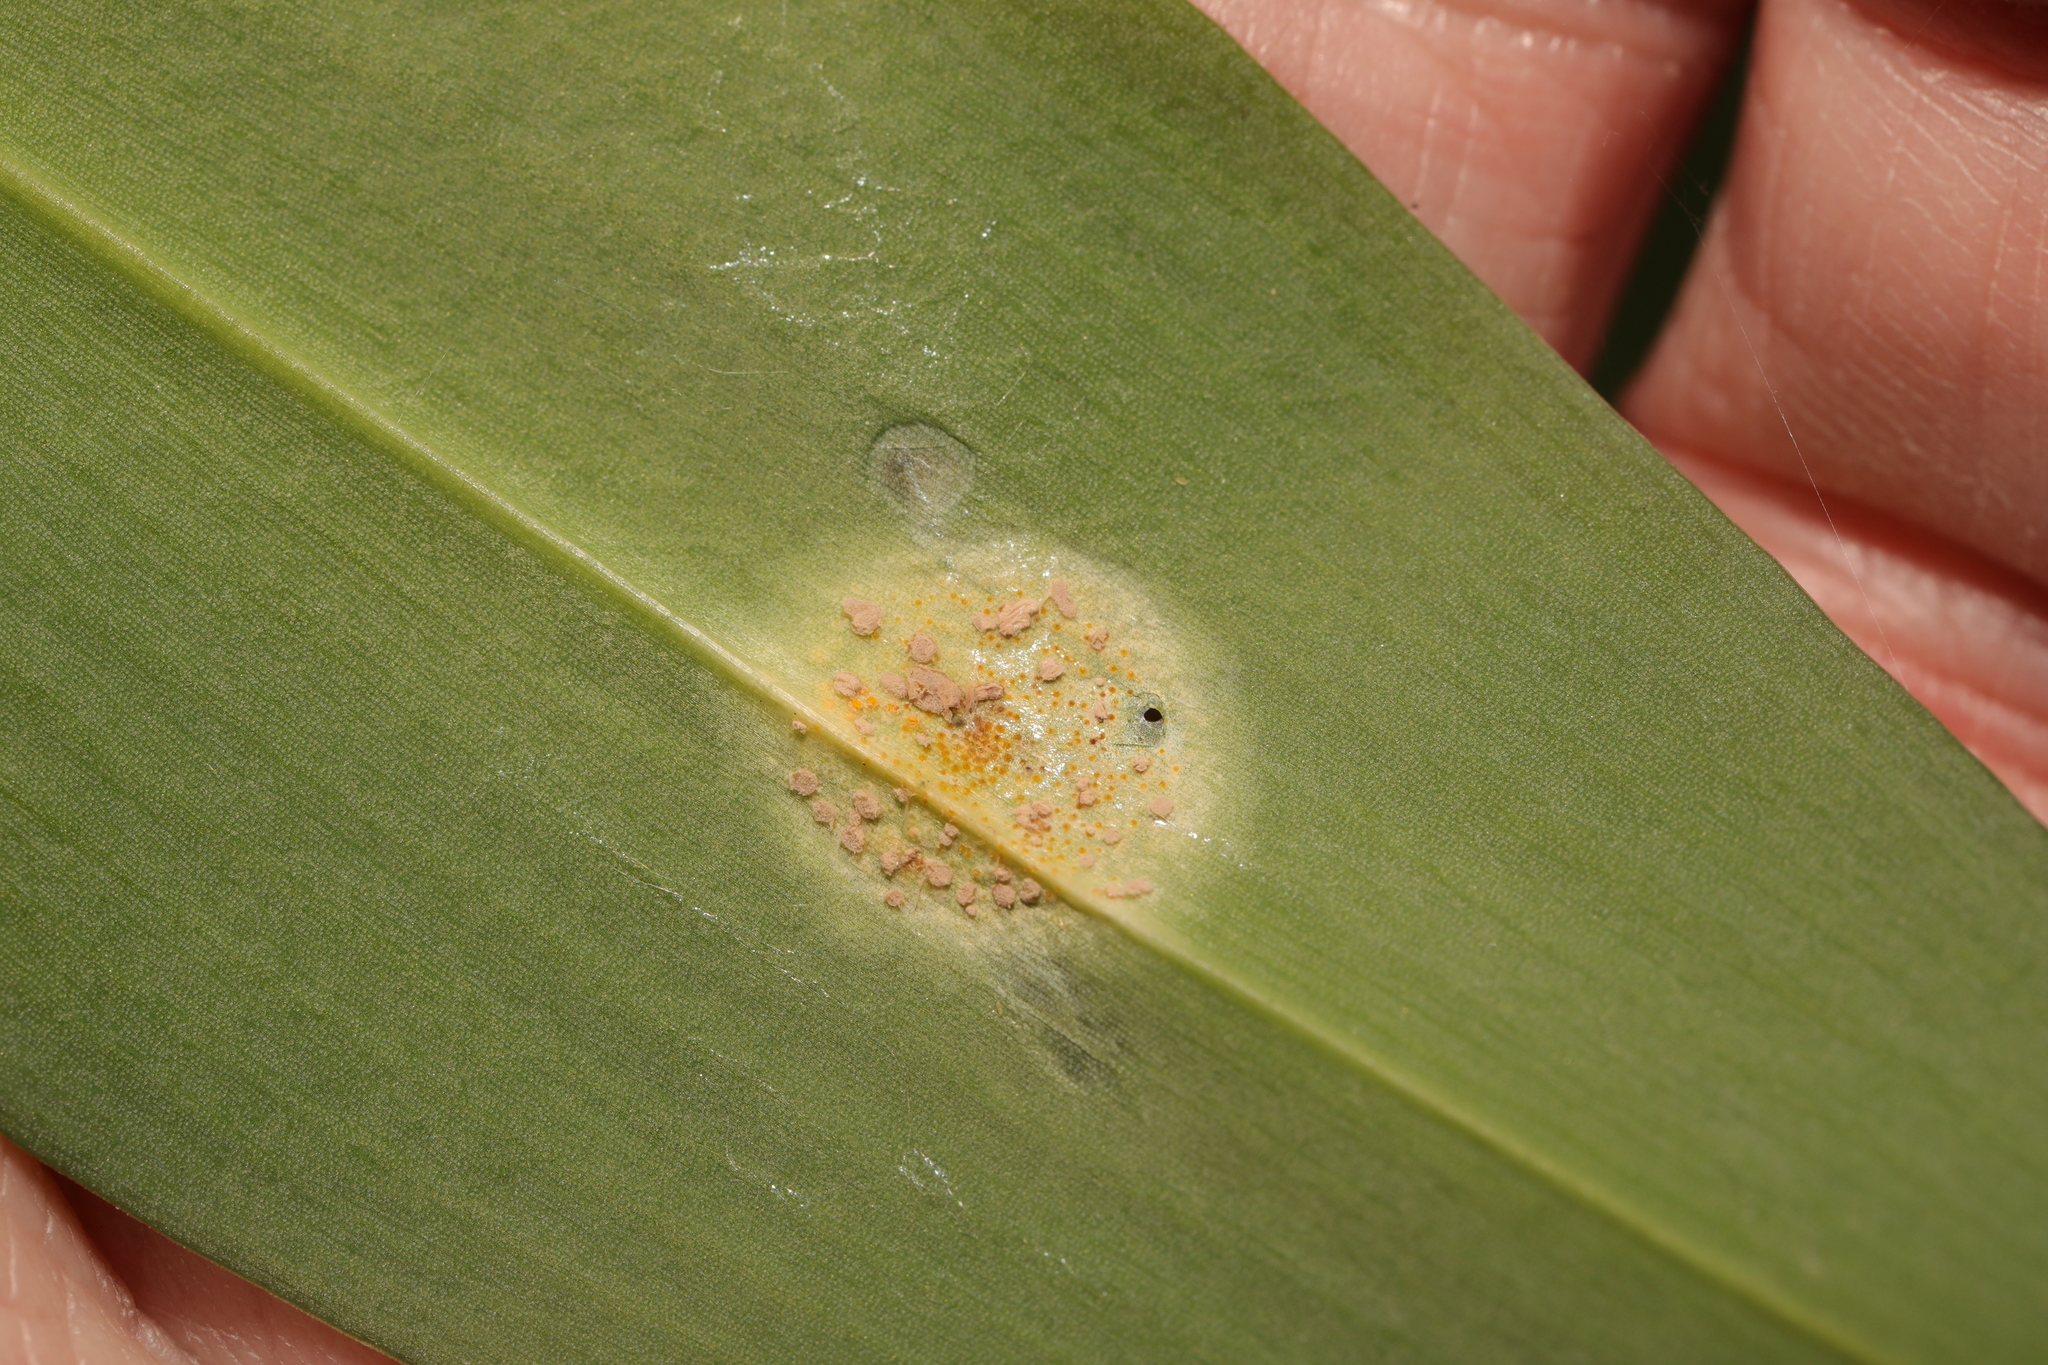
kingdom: Fungi
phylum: Basidiomycota
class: Pucciniomycetes
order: Pucciniales
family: Pucciniaceae
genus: Puccinia
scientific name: Puccinia sessilis
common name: Arum rust
